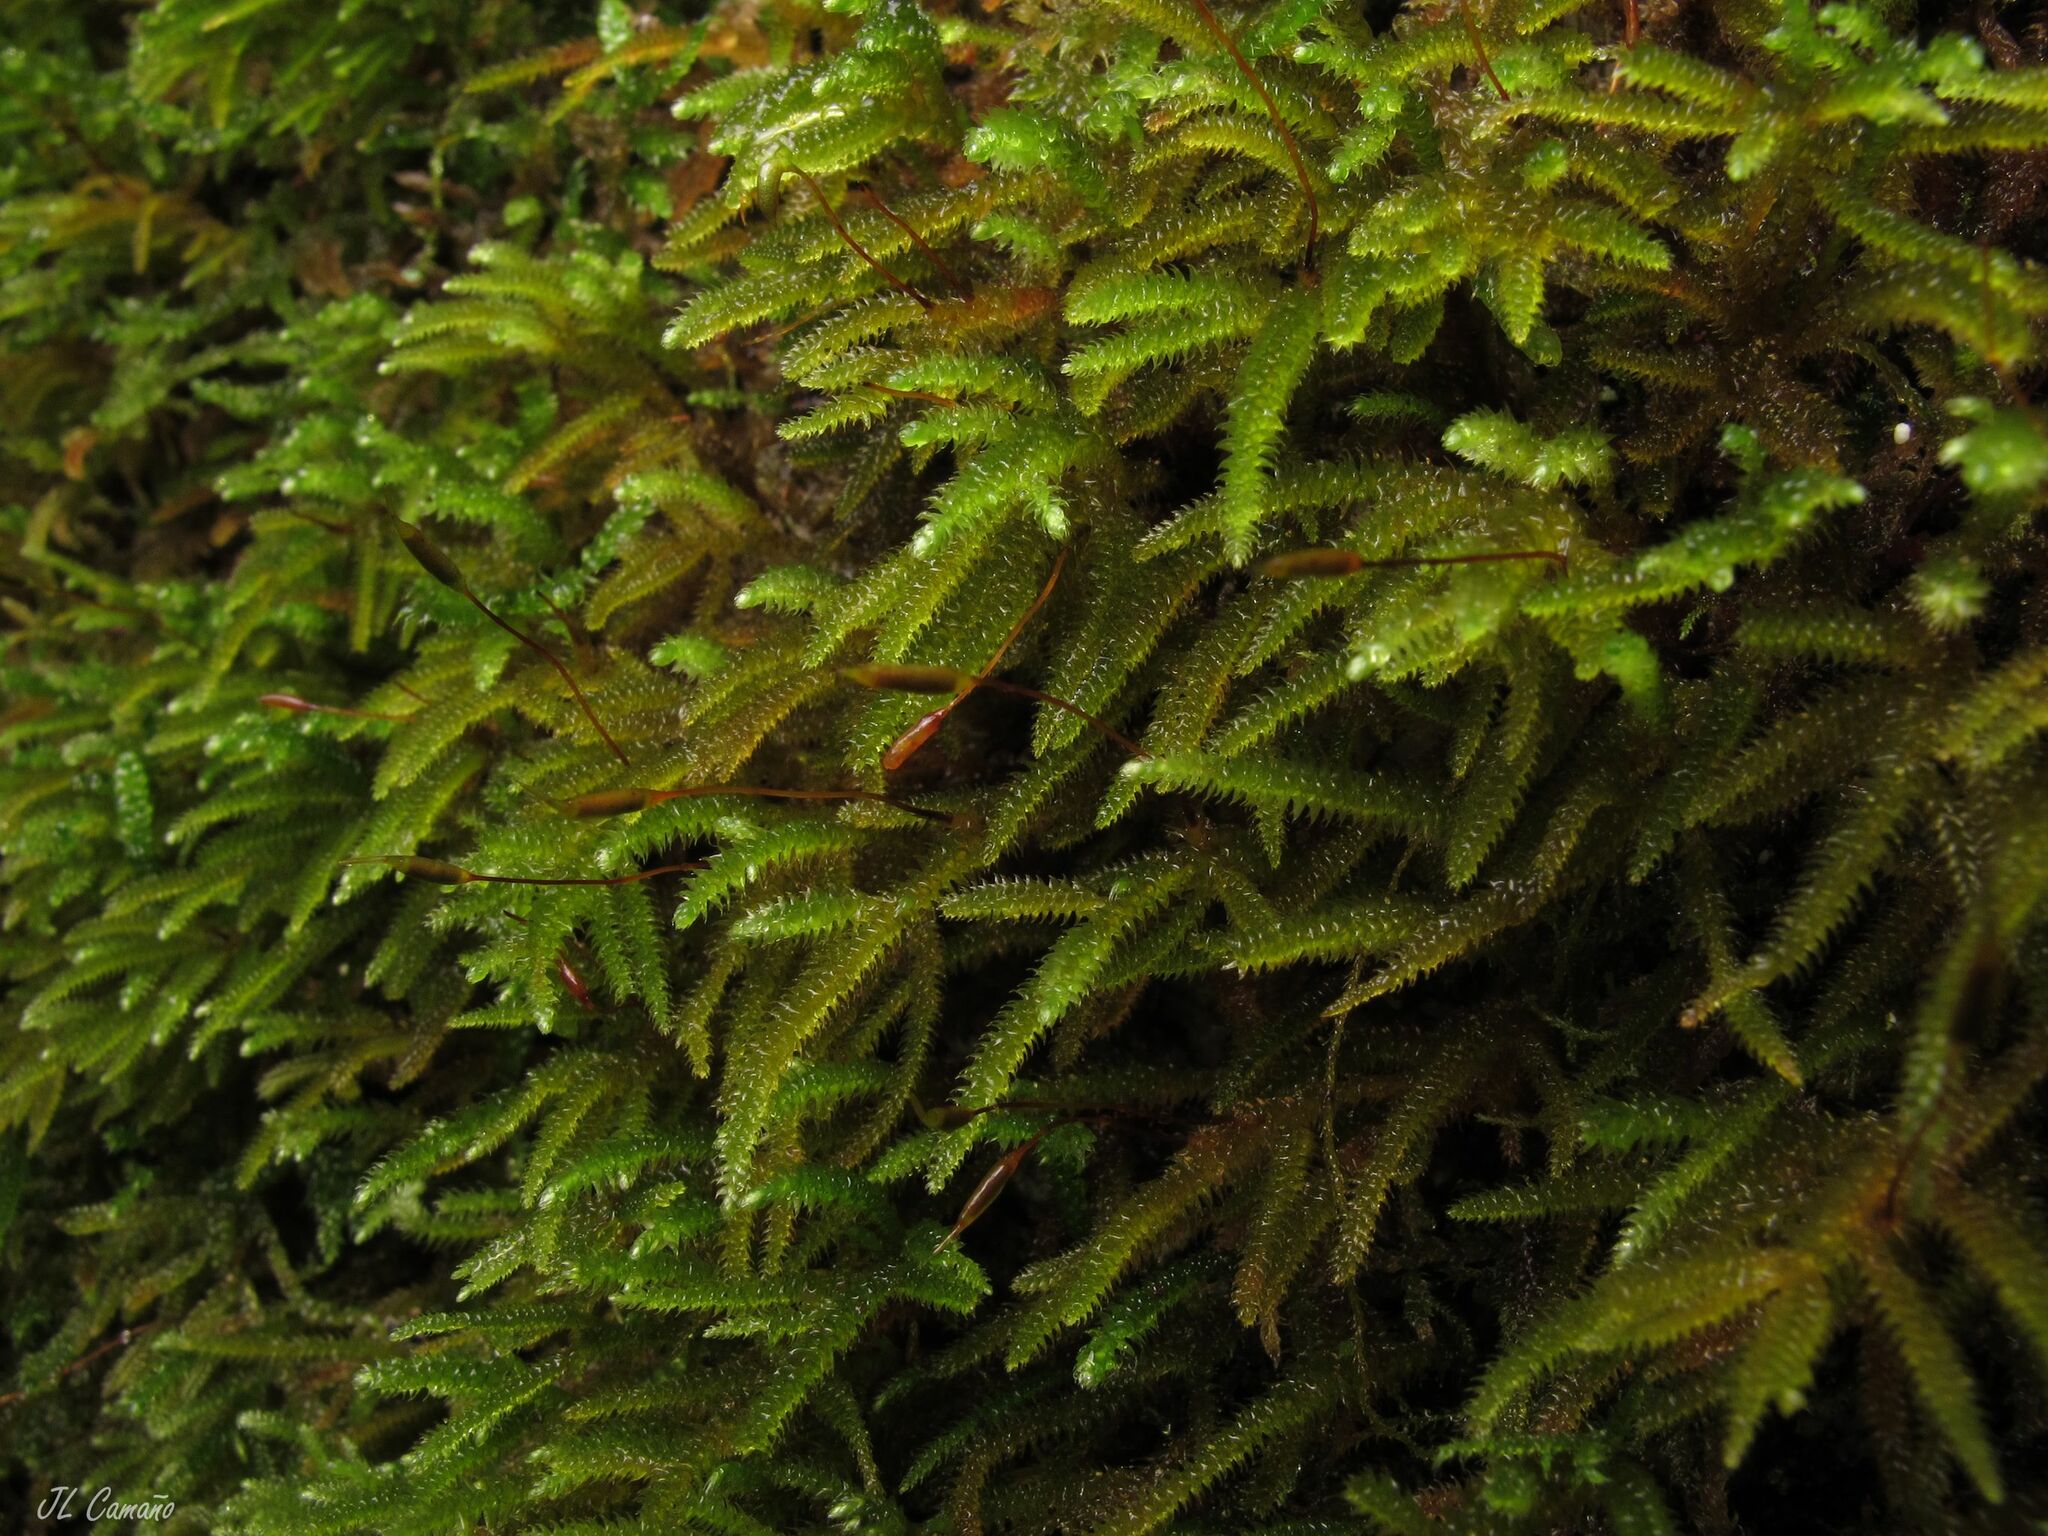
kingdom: Plantae
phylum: Bryophyta
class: Bryopsida
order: Hypnales
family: Lembophyllaceae
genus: Nogopterium
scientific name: Nogopterium gracile
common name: Bird's-foot wing-moss
